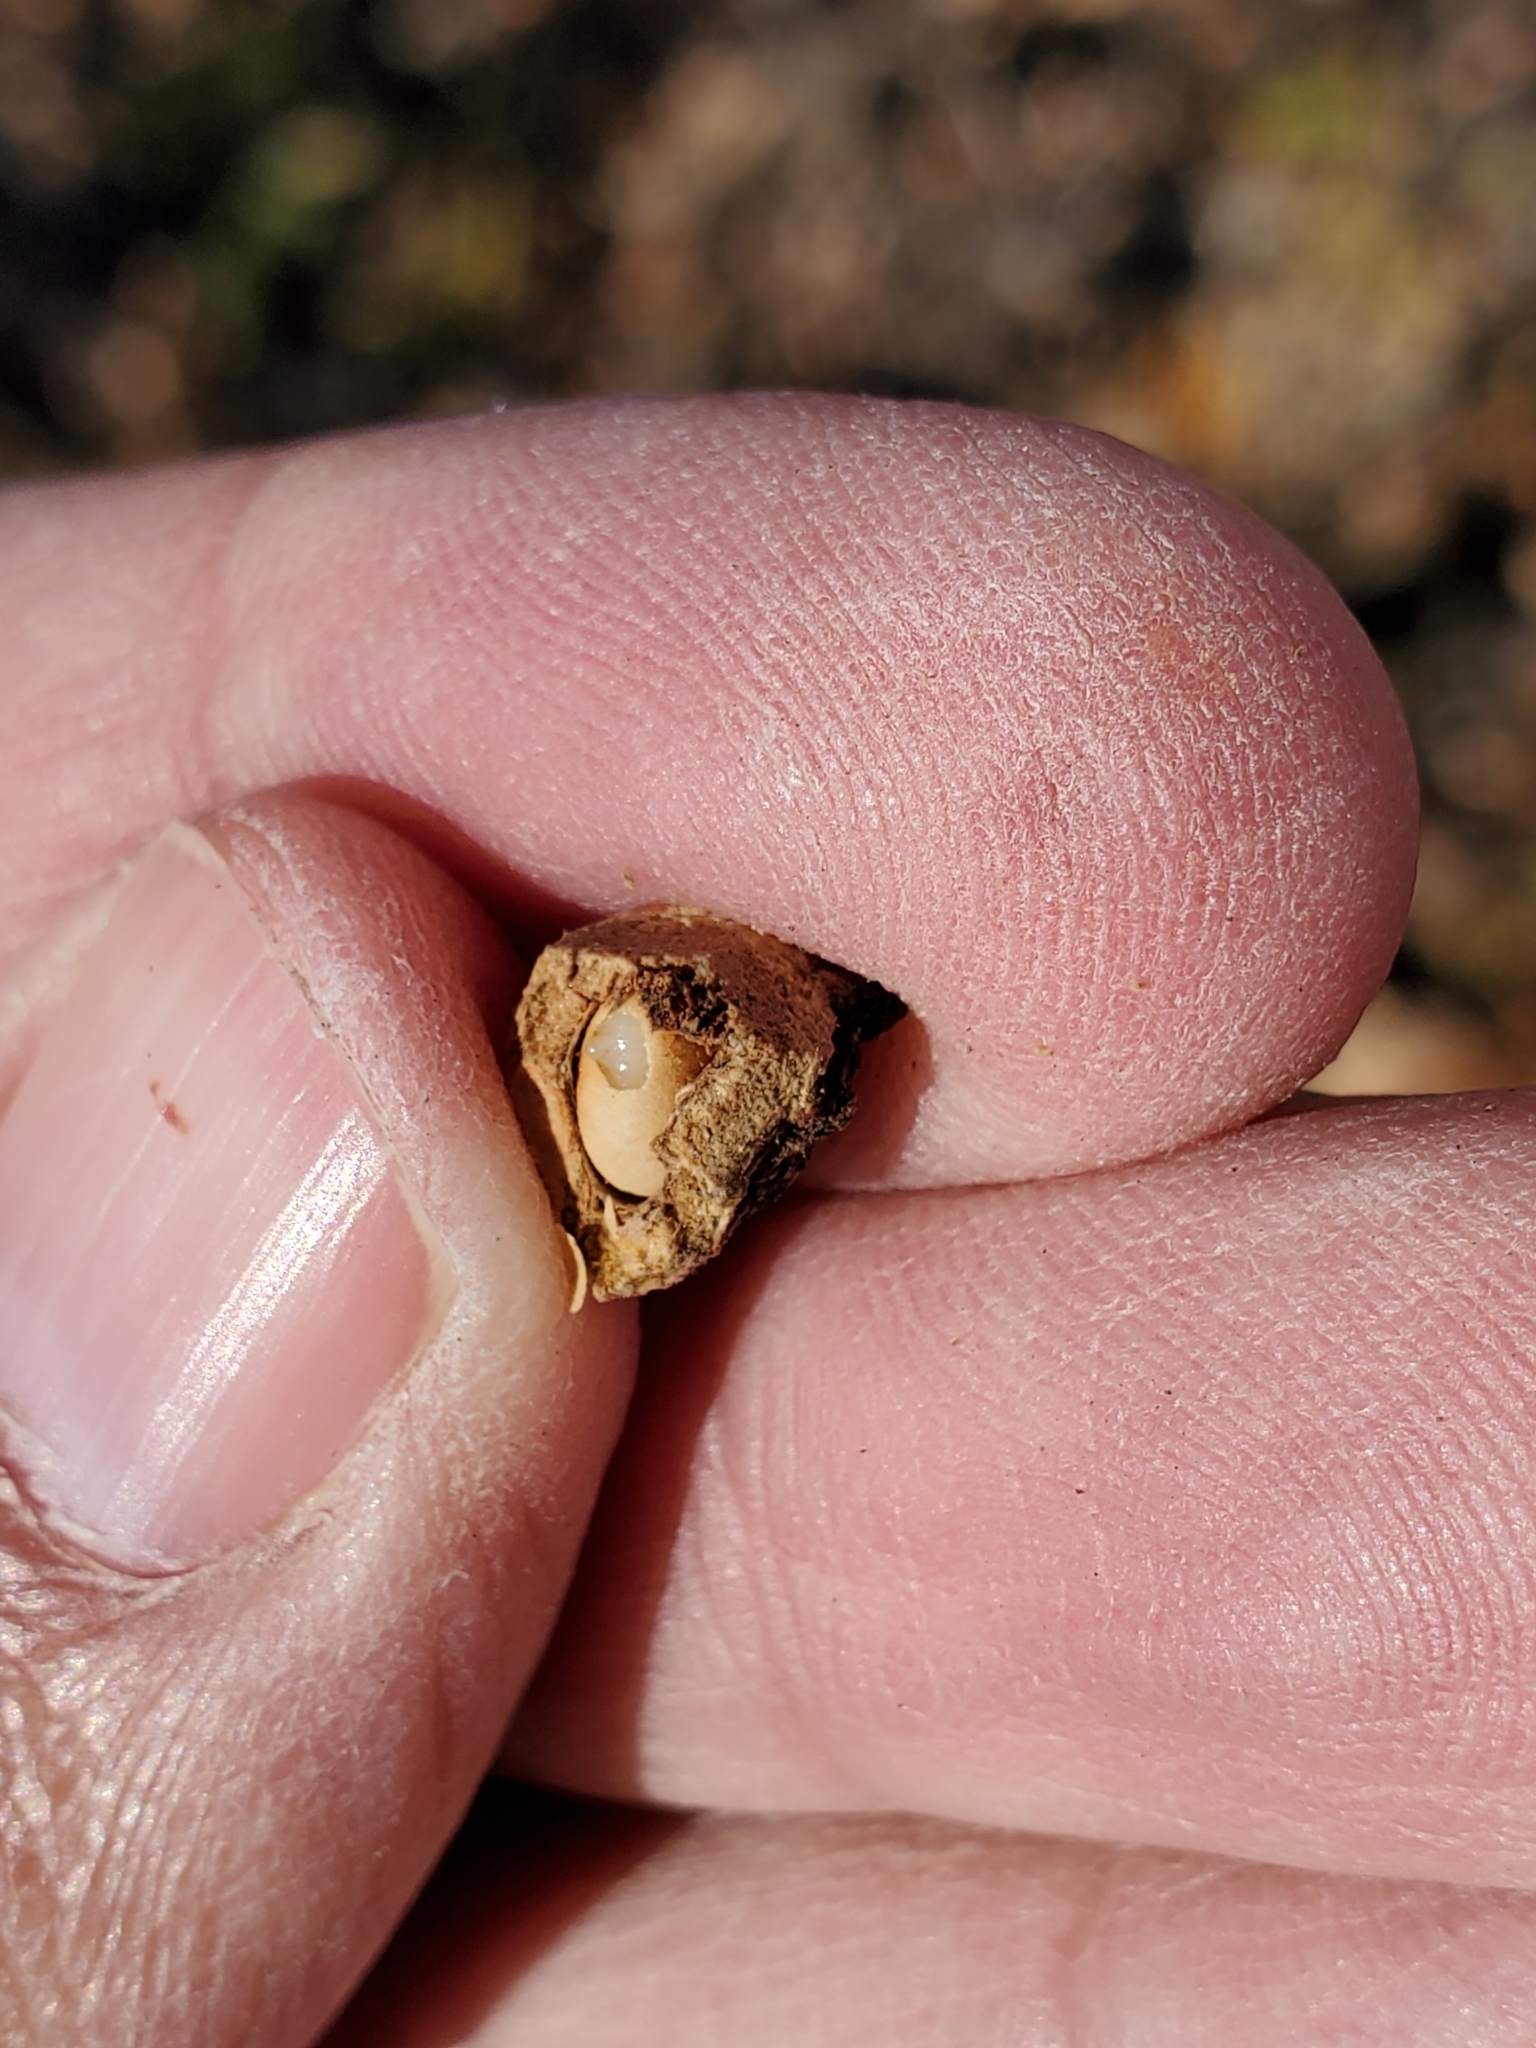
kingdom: Animalia
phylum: Arthropoda
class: Insecta
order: Hymenoptera
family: Cynipidae
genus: Disholcaspis
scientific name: Disholcaspis
